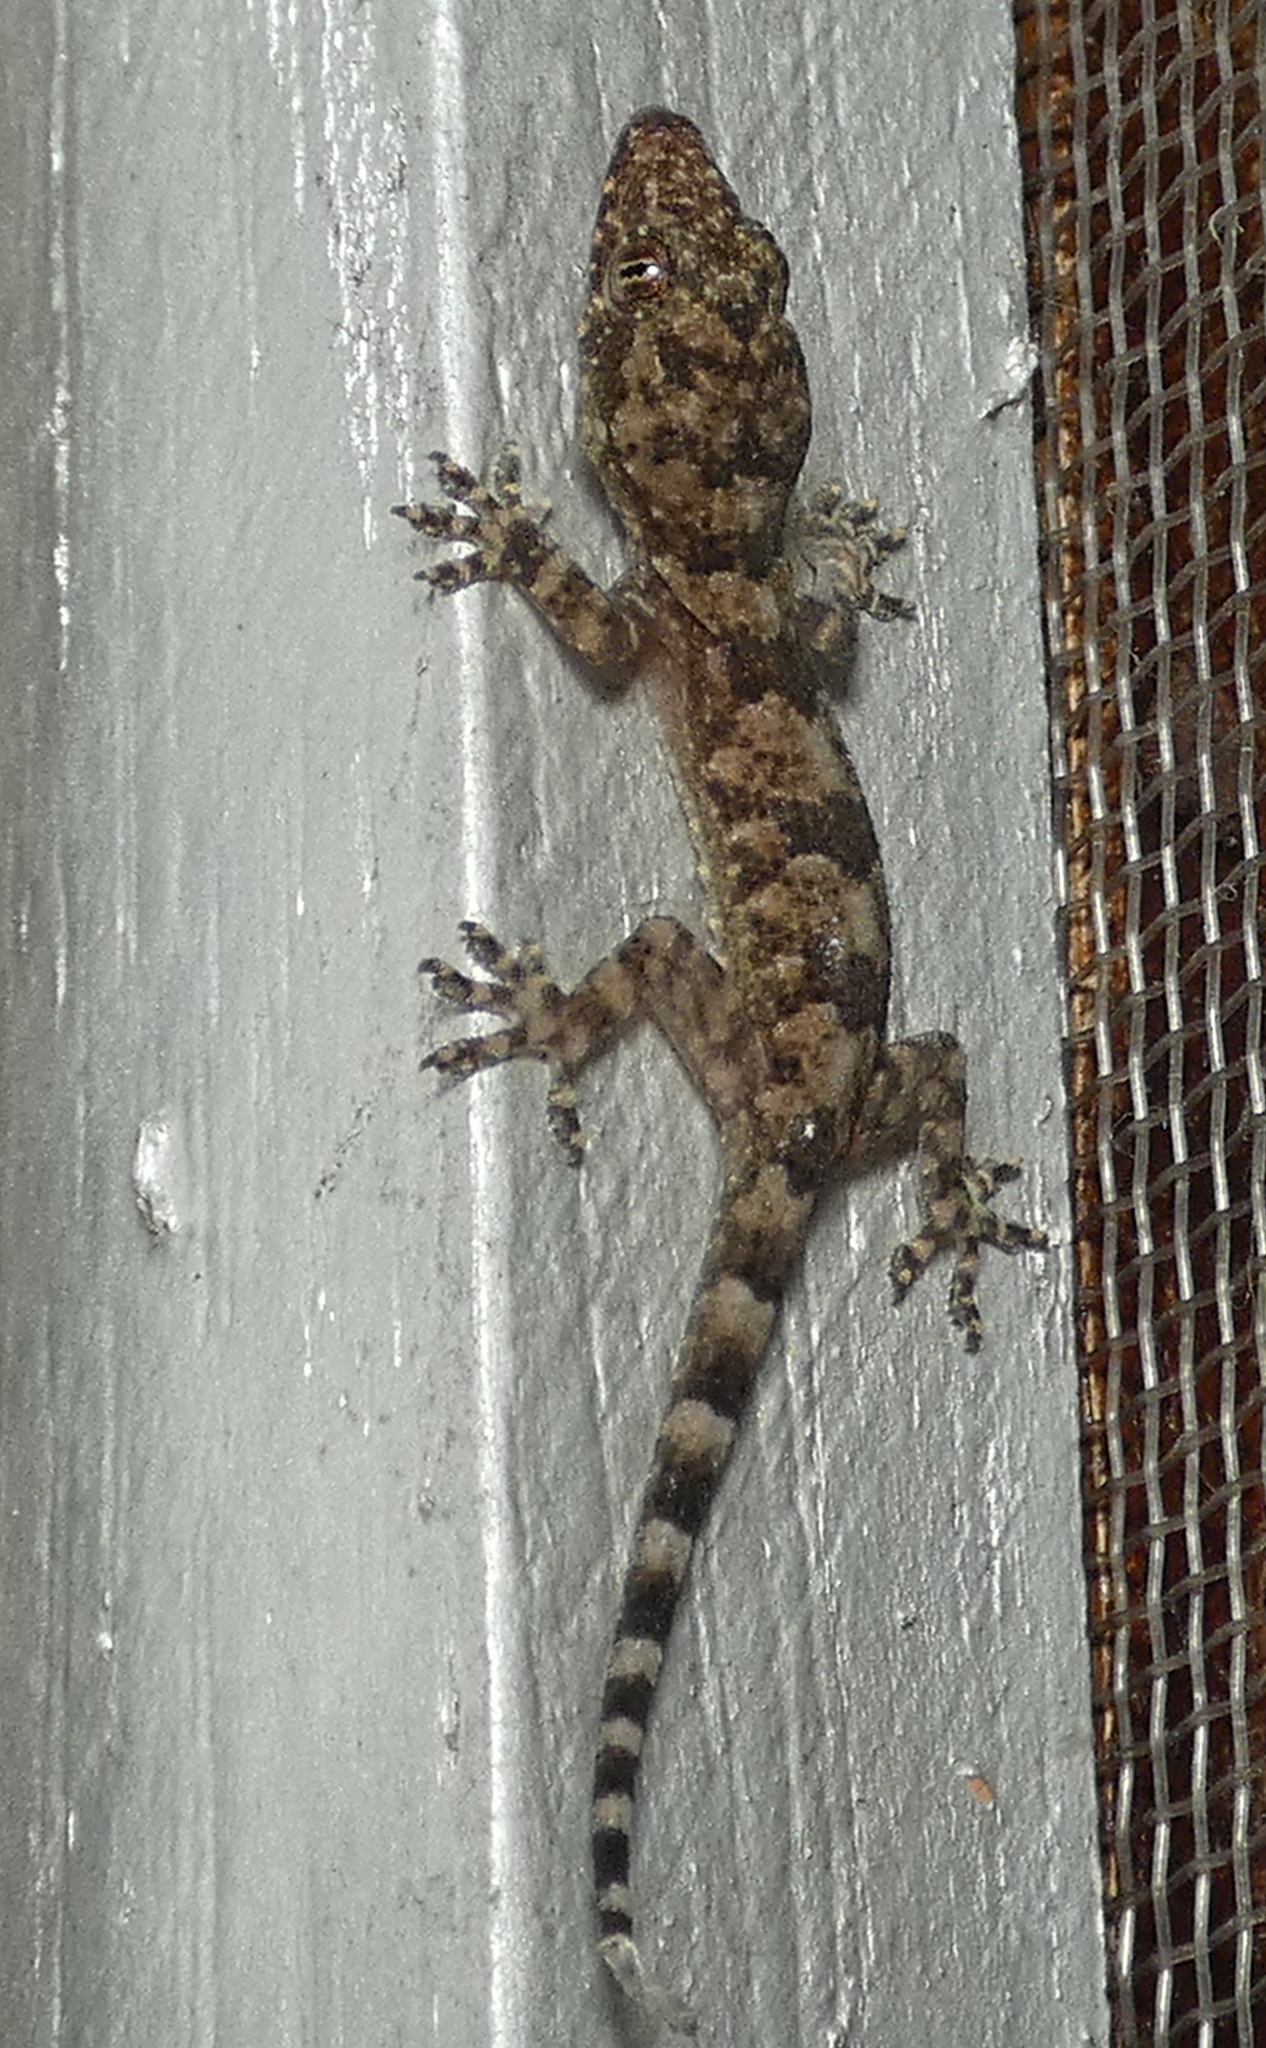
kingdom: Animalia
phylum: Chordata
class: Squamata
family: Gekkonidae
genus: Hemidactylus
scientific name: Hemidactylus mabouia
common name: House gecko
